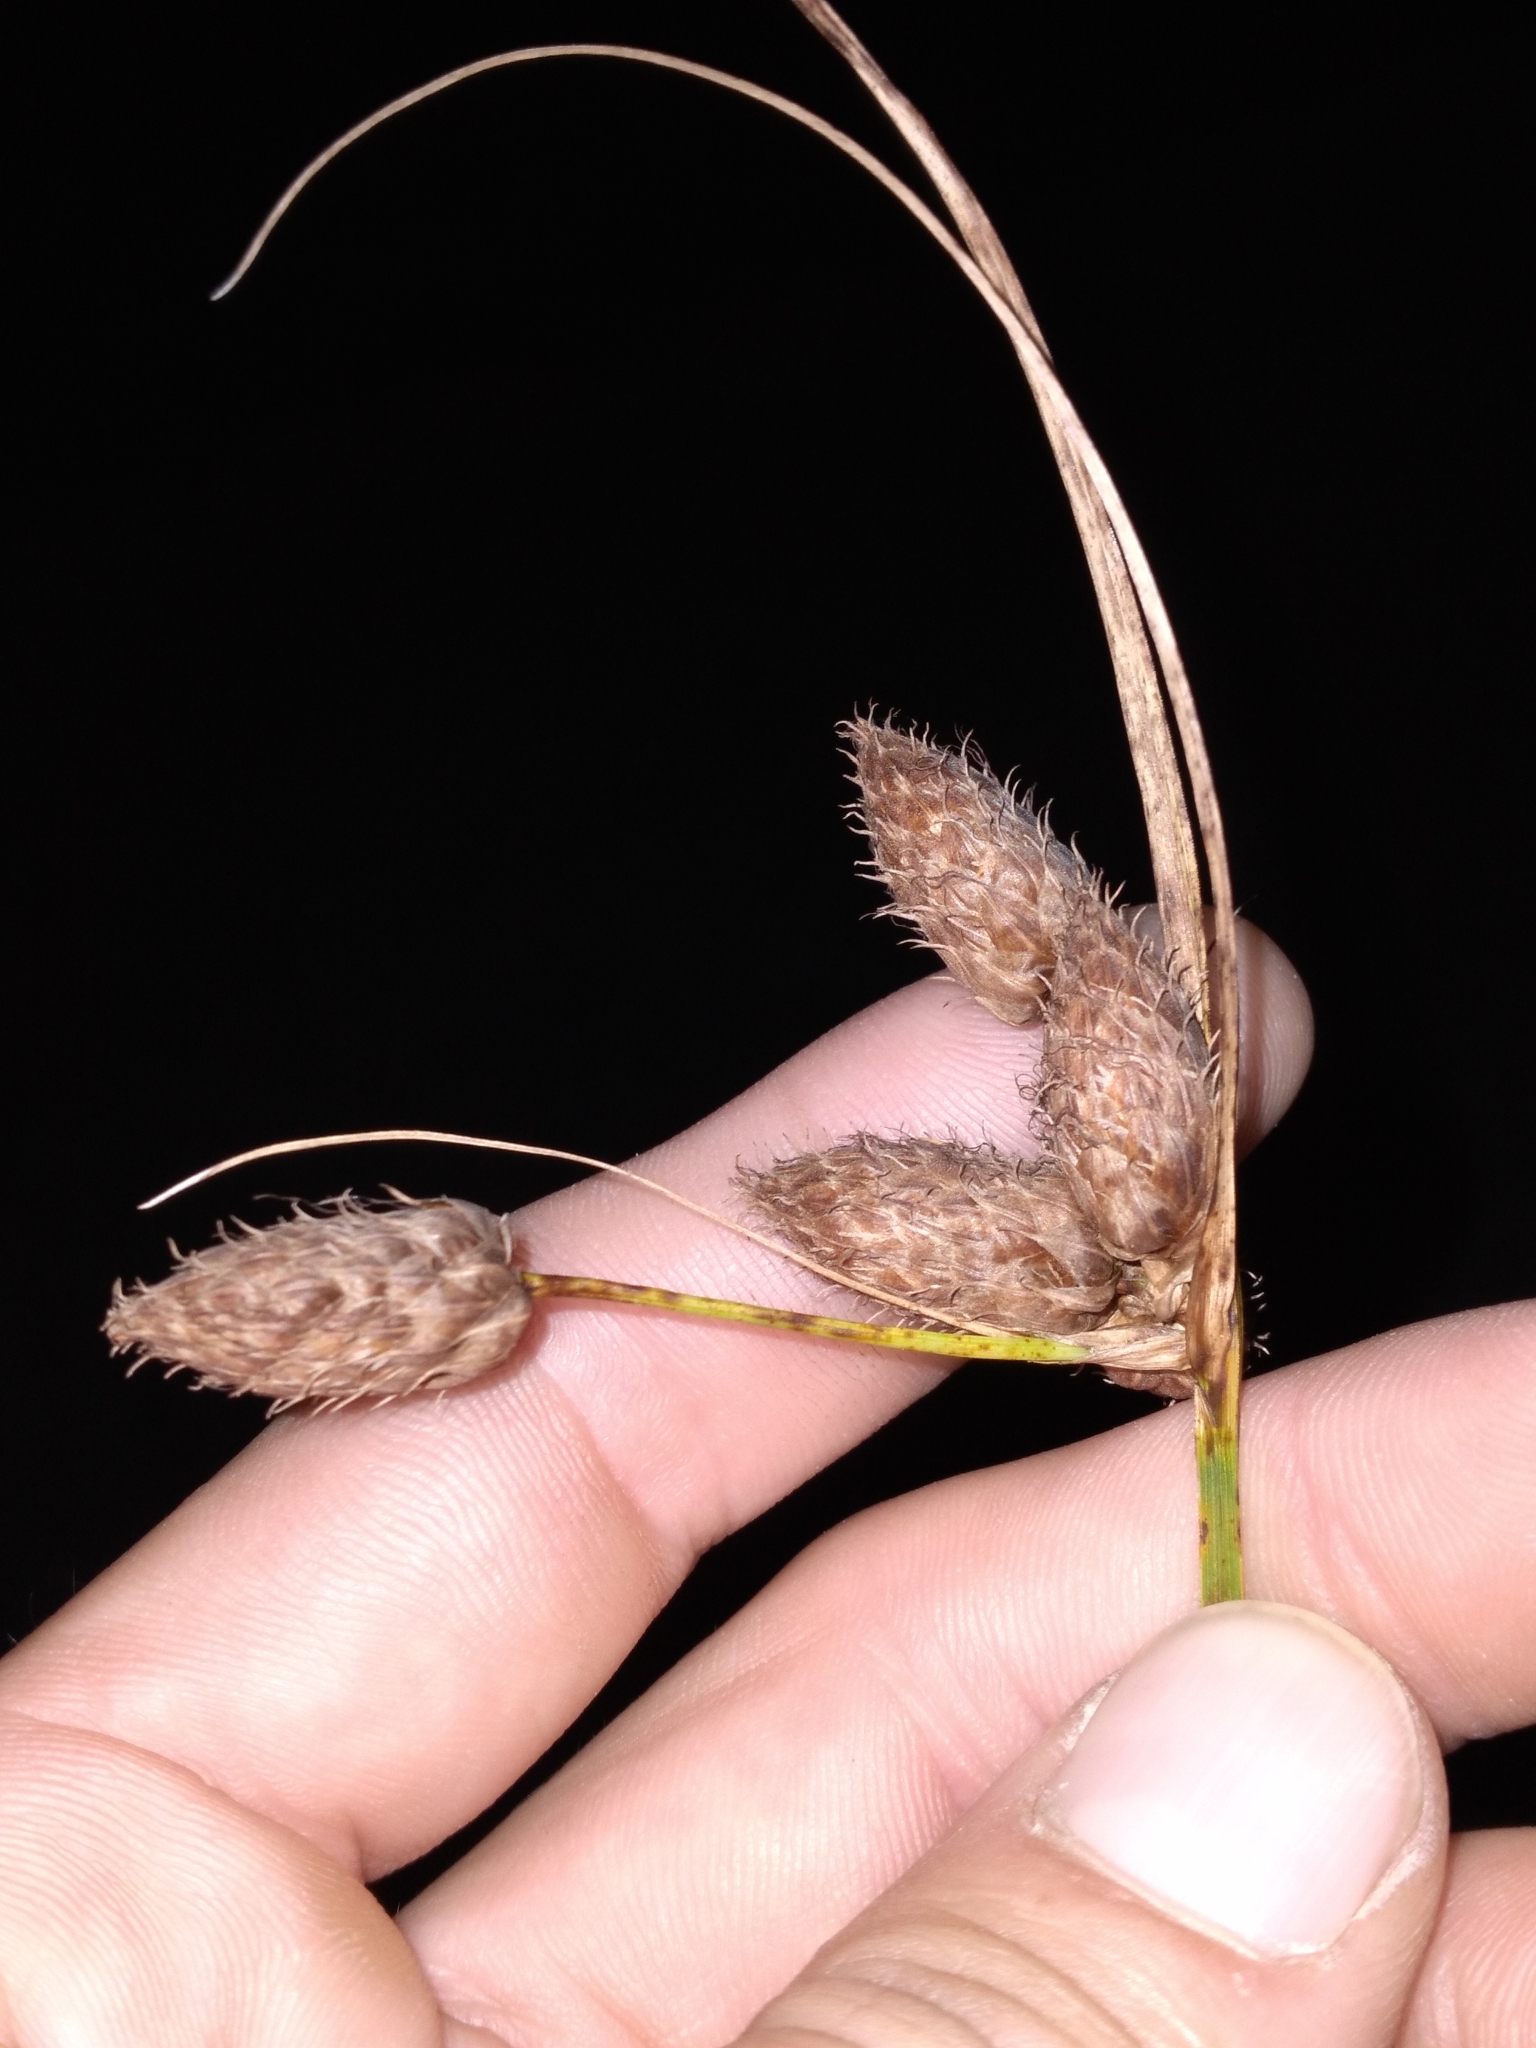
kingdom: Plantae
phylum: Tracheophyta
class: Liliopsida
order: Poales
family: Cyperaceae
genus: Bolboschoenus
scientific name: Bolboschoenus robustus
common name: Seacoast bulrush
